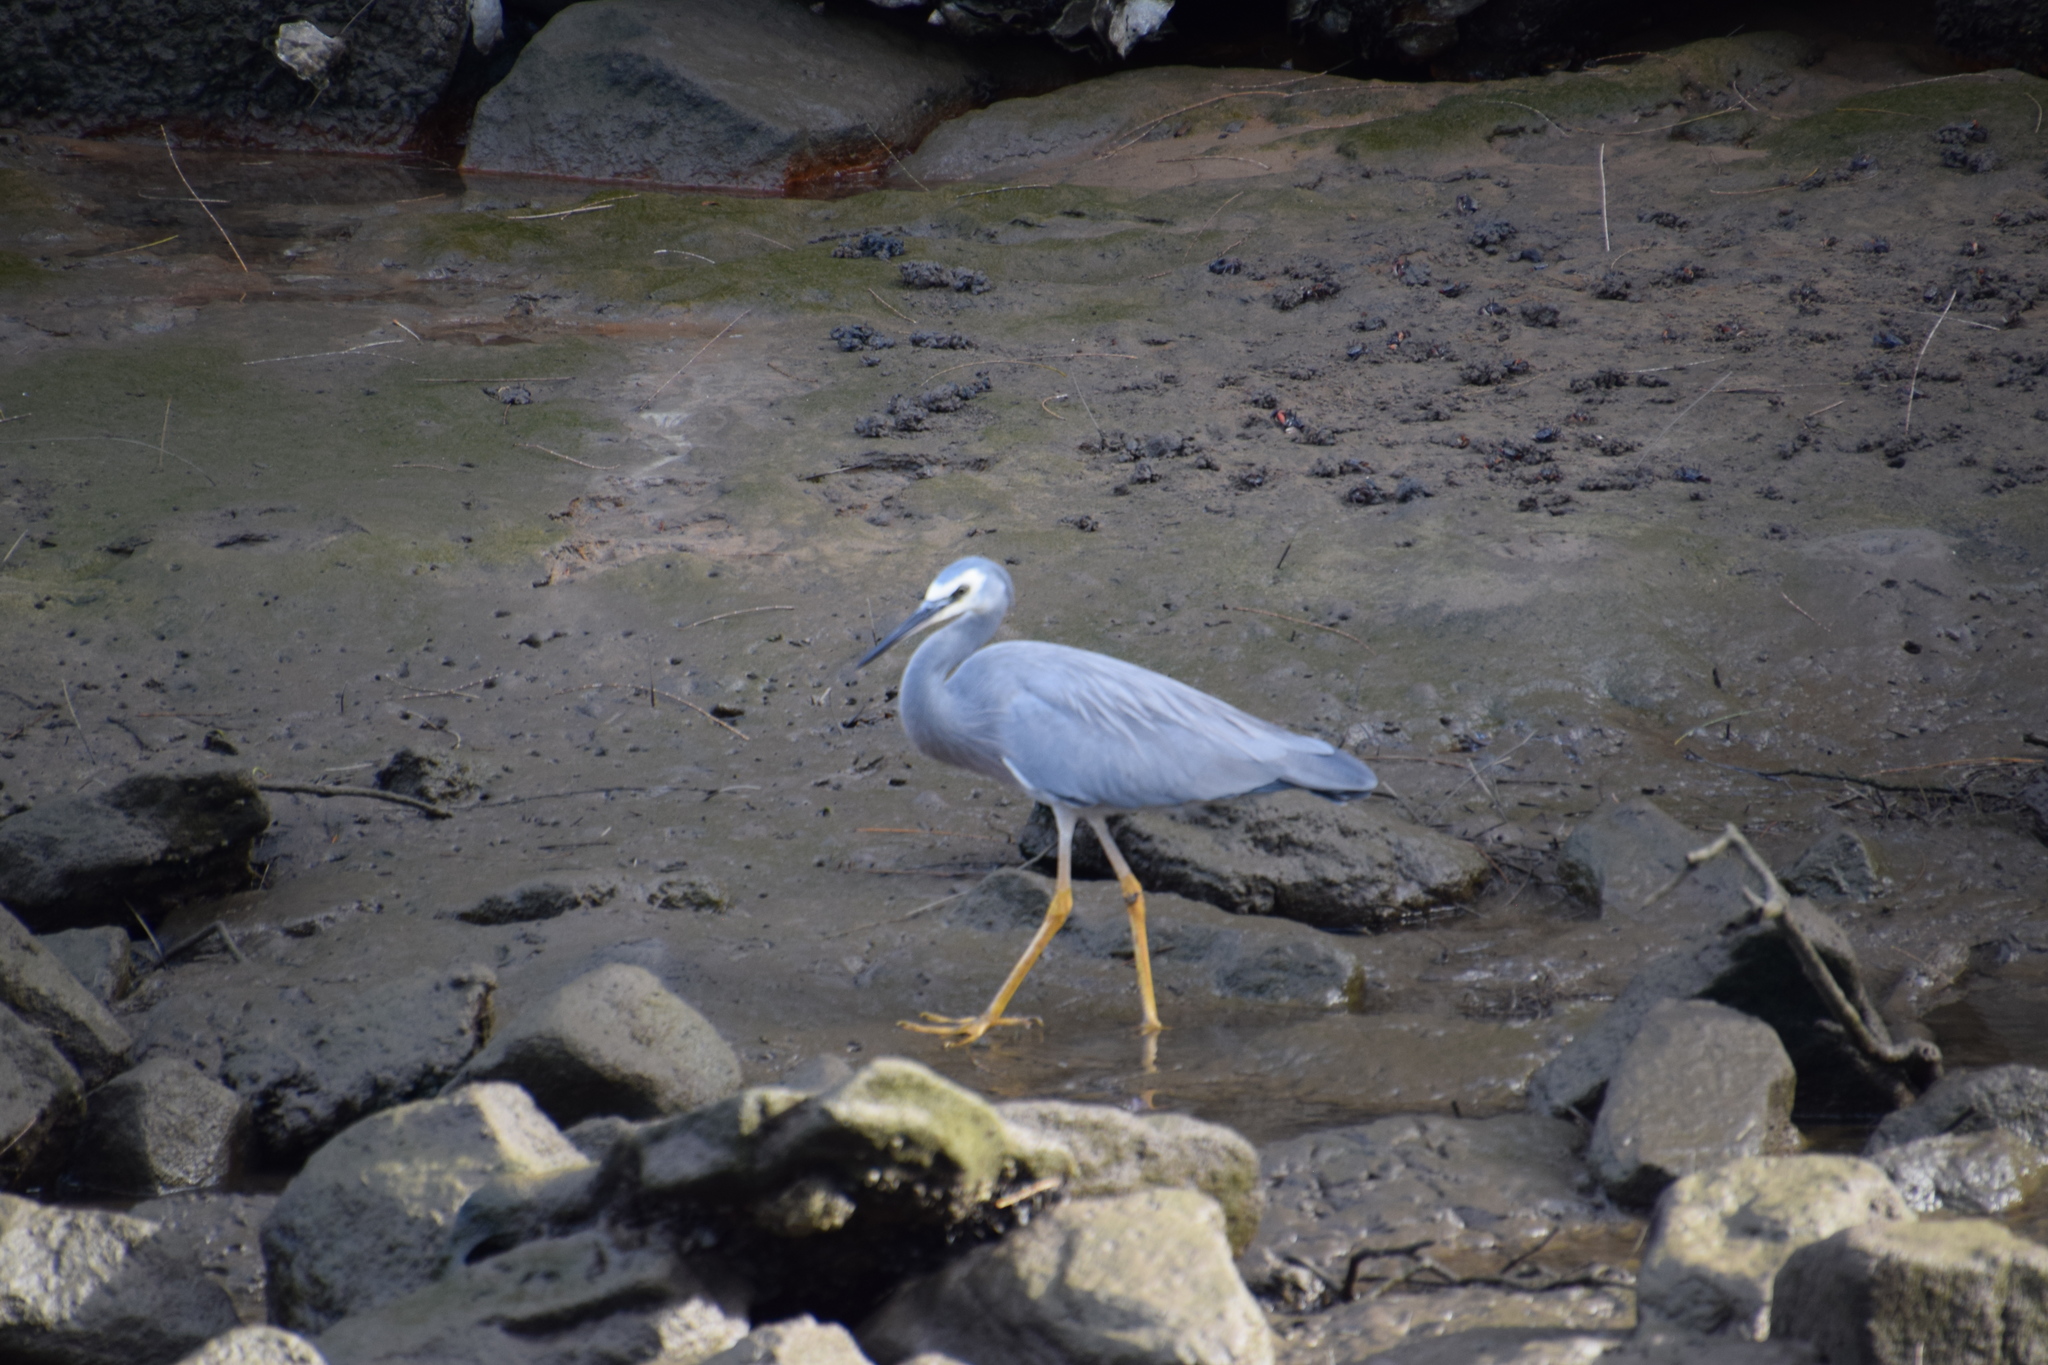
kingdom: Animalia
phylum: Chordata
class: Aves
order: Pelecaniformes
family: Ardeidae
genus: Egretta
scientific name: Egretta novaehollandiae
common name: White-faced heron
